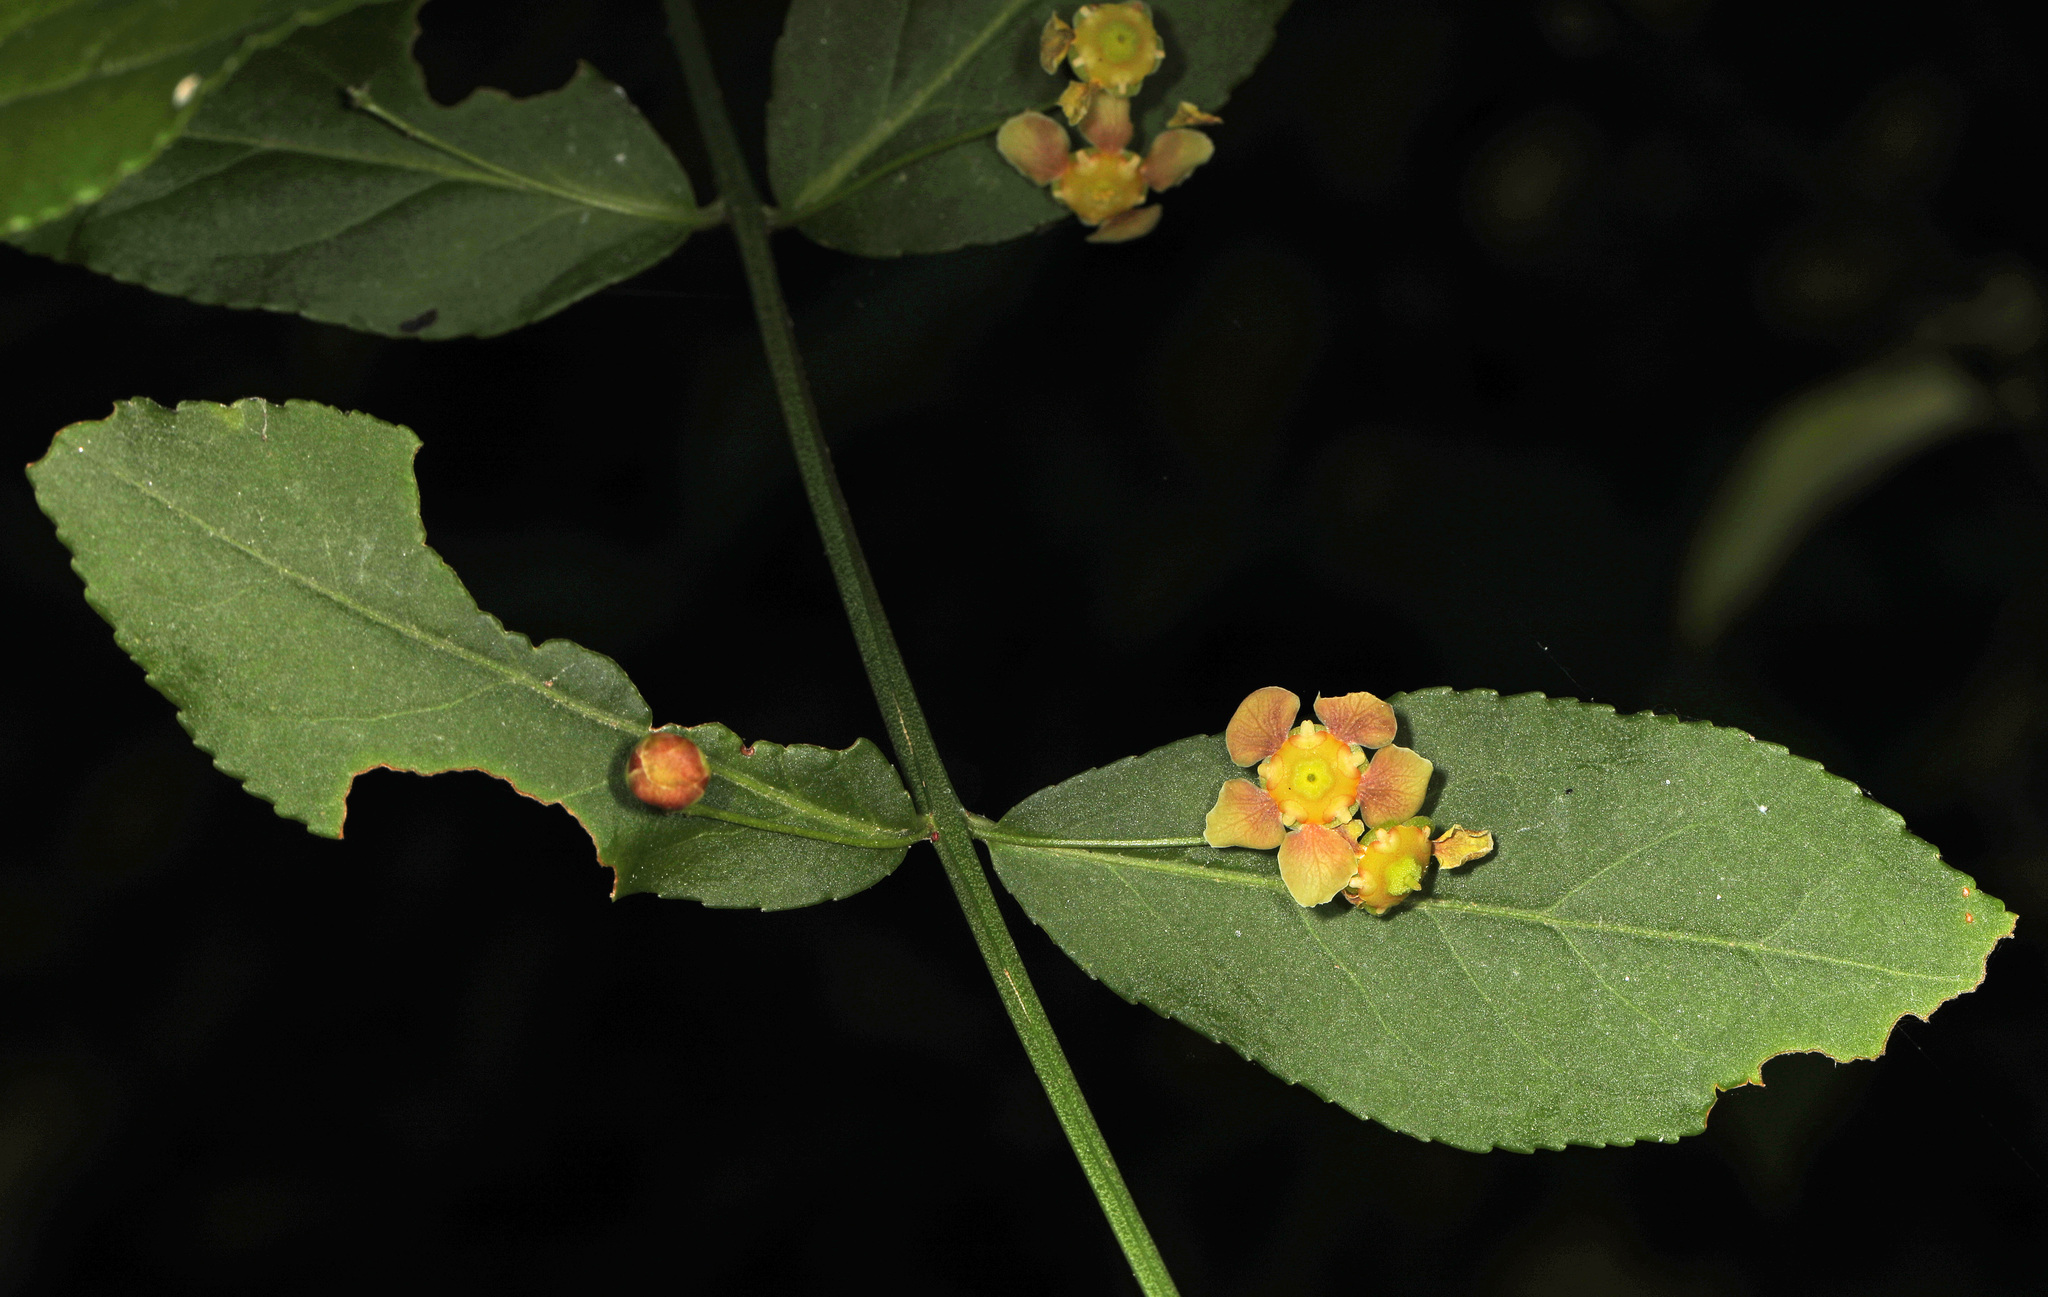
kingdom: Plantae
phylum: Tracheophyta
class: Magnoliopsida
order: Celastrales
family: Celastraceae
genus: Euonymus
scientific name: Euonymus americanus
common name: Bursting-heart
